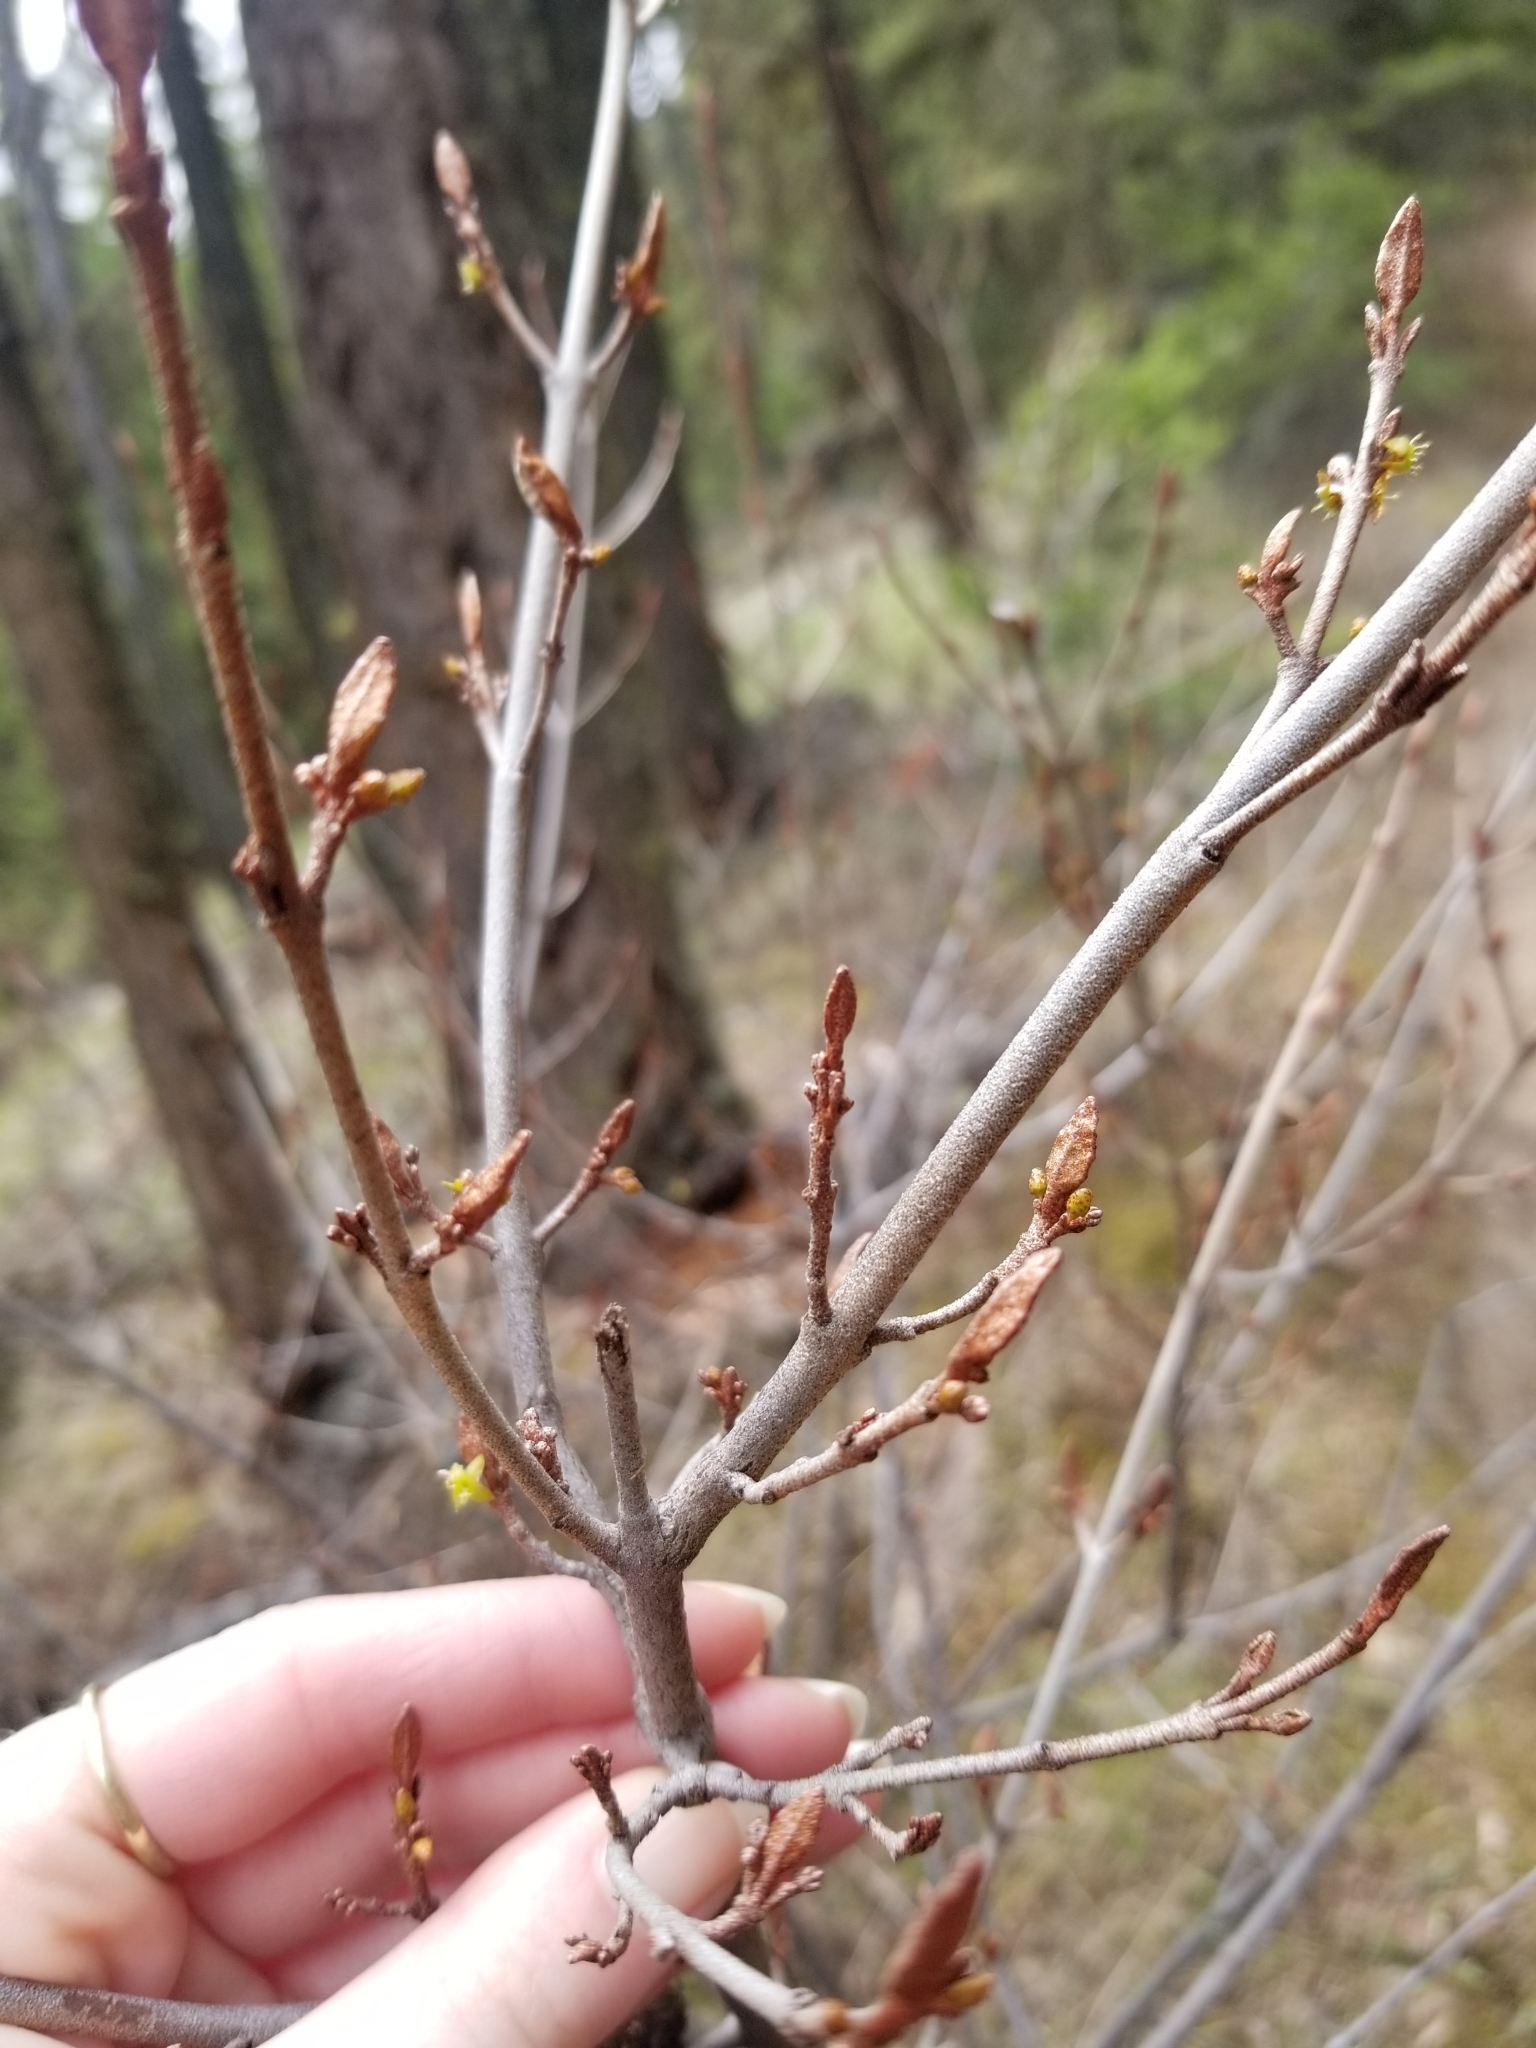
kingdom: Plantae
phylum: Tracheophyta
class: Magnoliopsida
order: Rosales
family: Elaeagnaceae
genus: Shepherdia
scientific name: Shepherdia canadensis
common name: Soapberry
